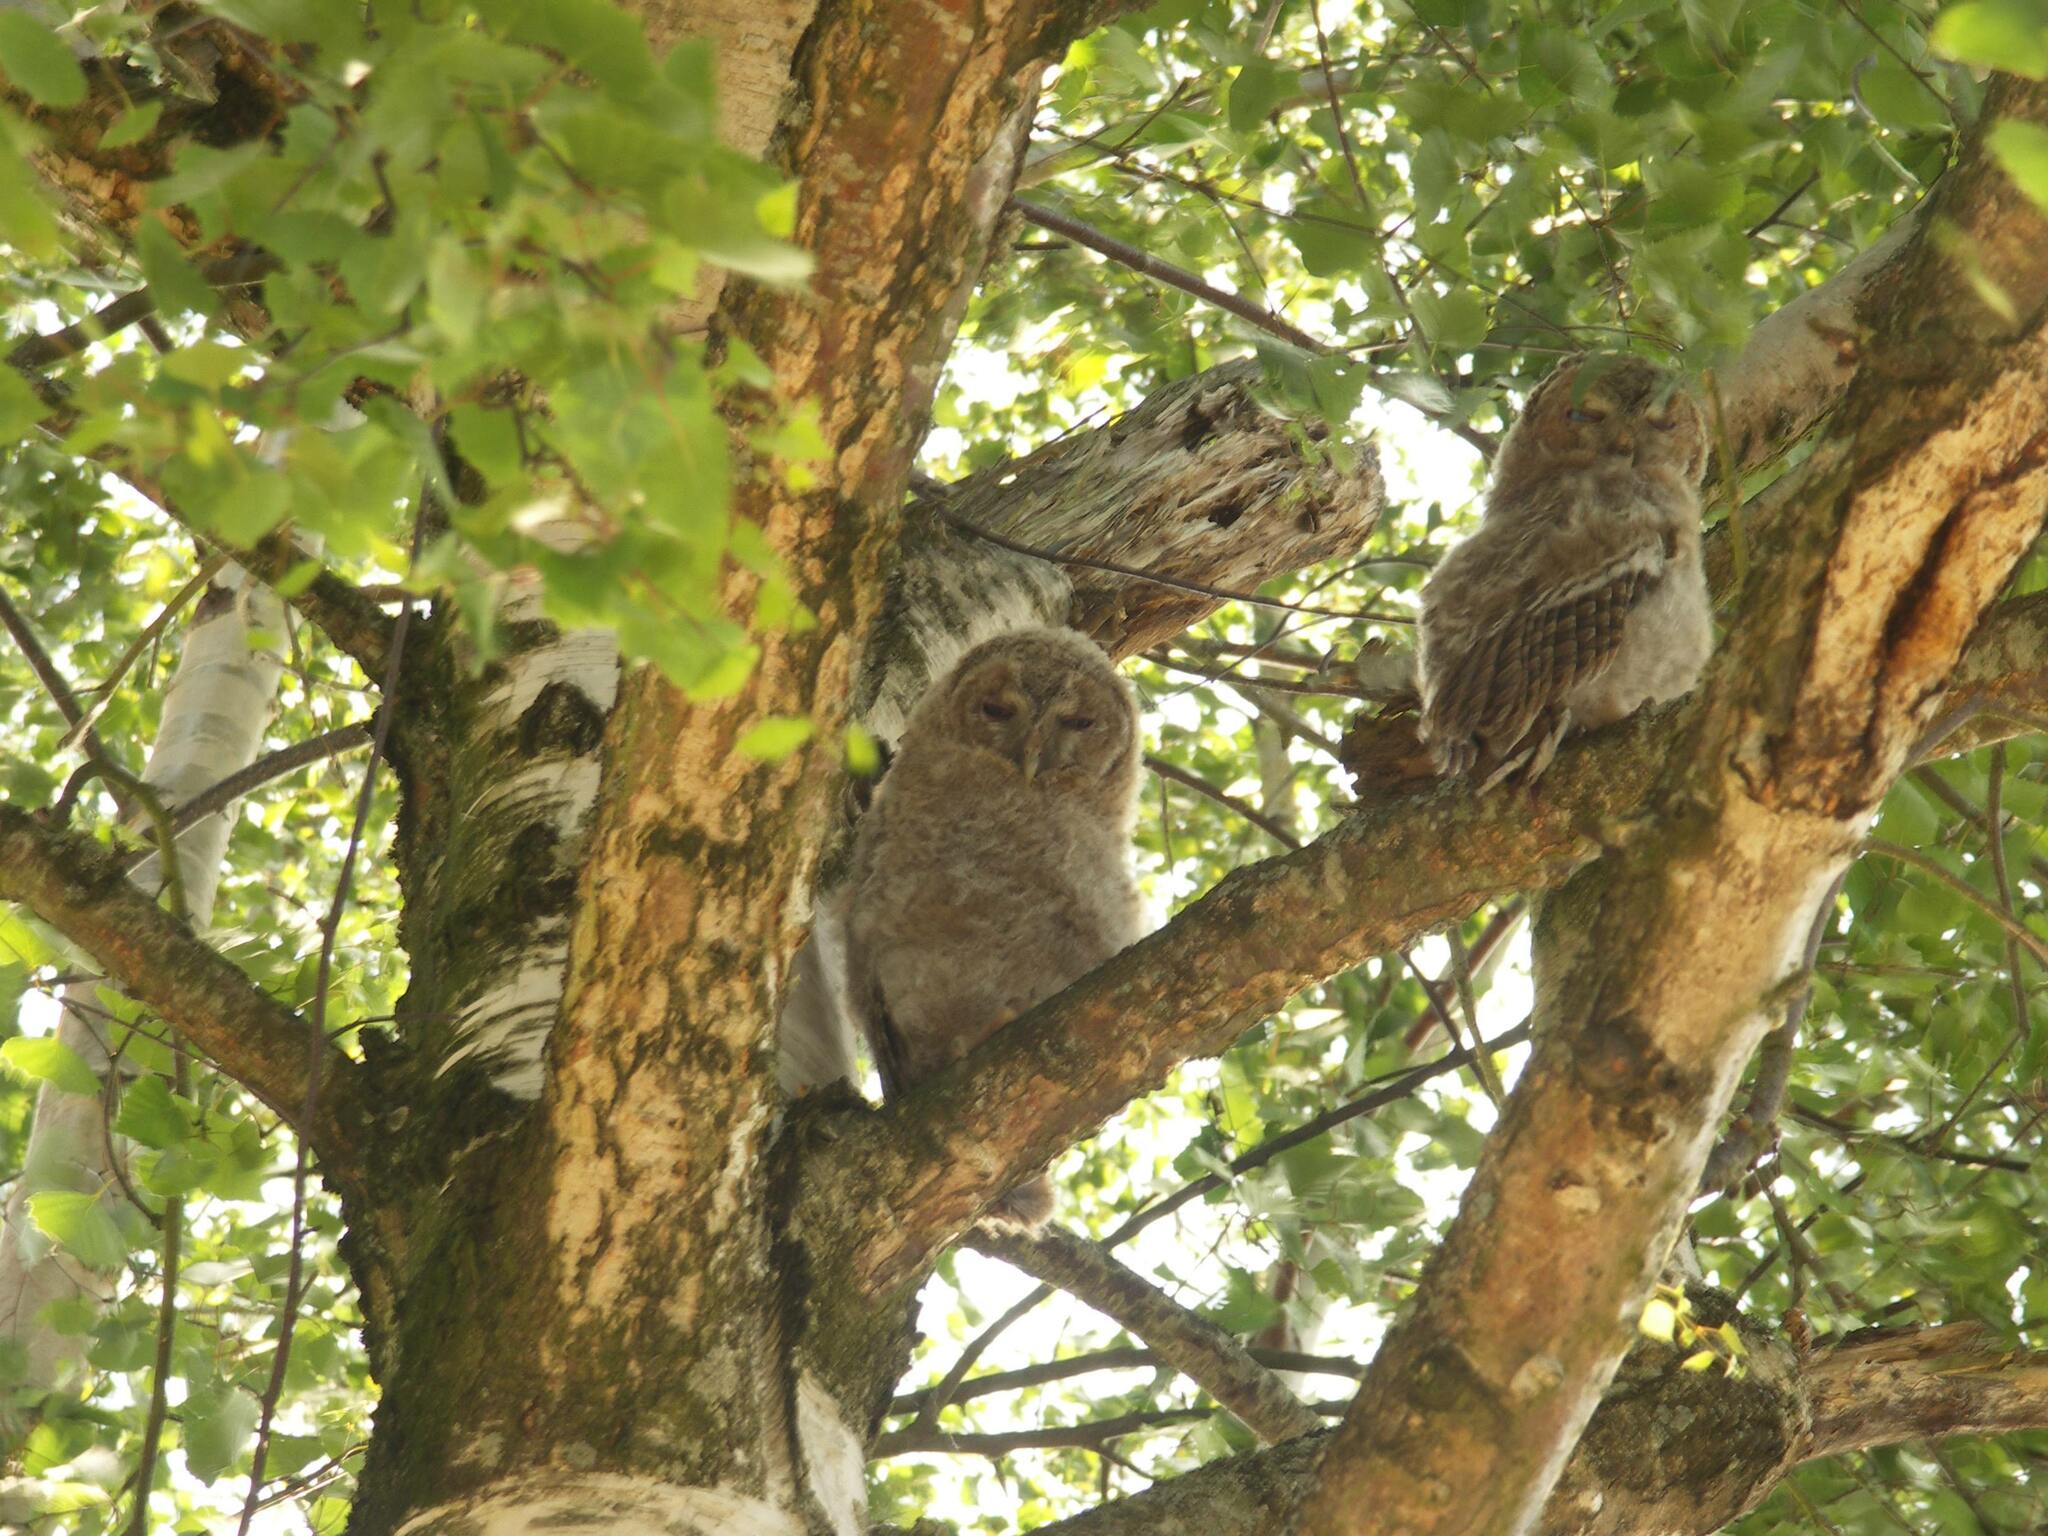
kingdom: Animalia
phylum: Chordata
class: Aves
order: Strigiformes
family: Strigidae
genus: Strix
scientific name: Strix aluco
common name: Tawny owl
